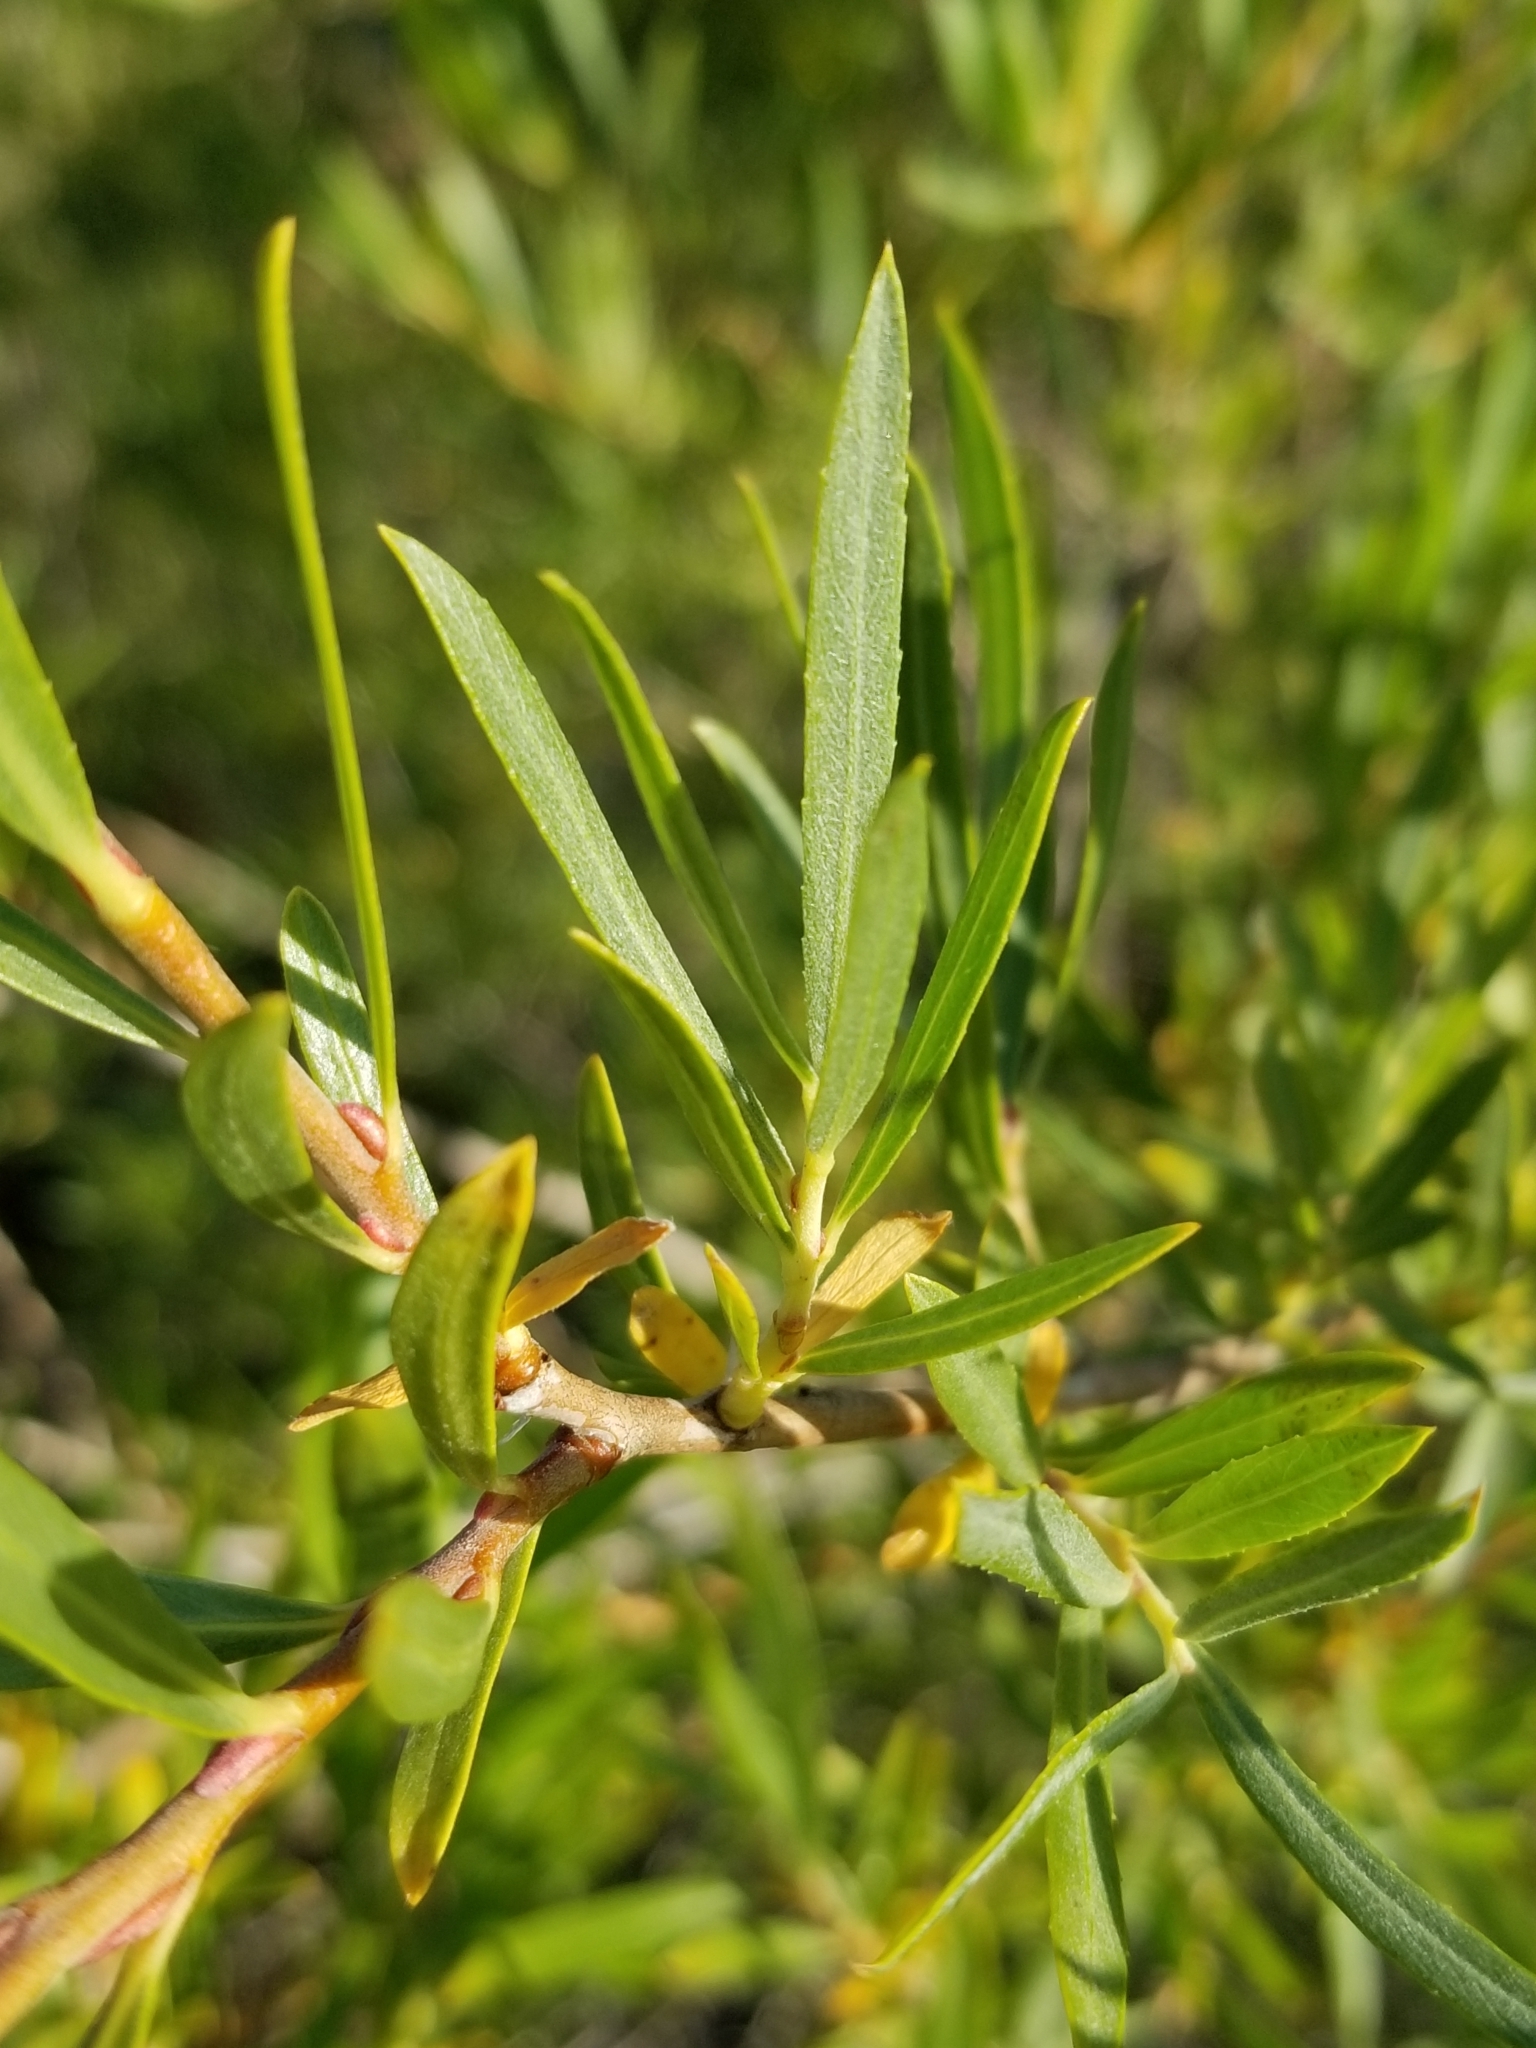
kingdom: Plantae
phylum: Tracheophyta
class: Magnoliopsida
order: Malpighiales
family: Salicaceae
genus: Salix
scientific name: Salix exigua
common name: Coyote willow
